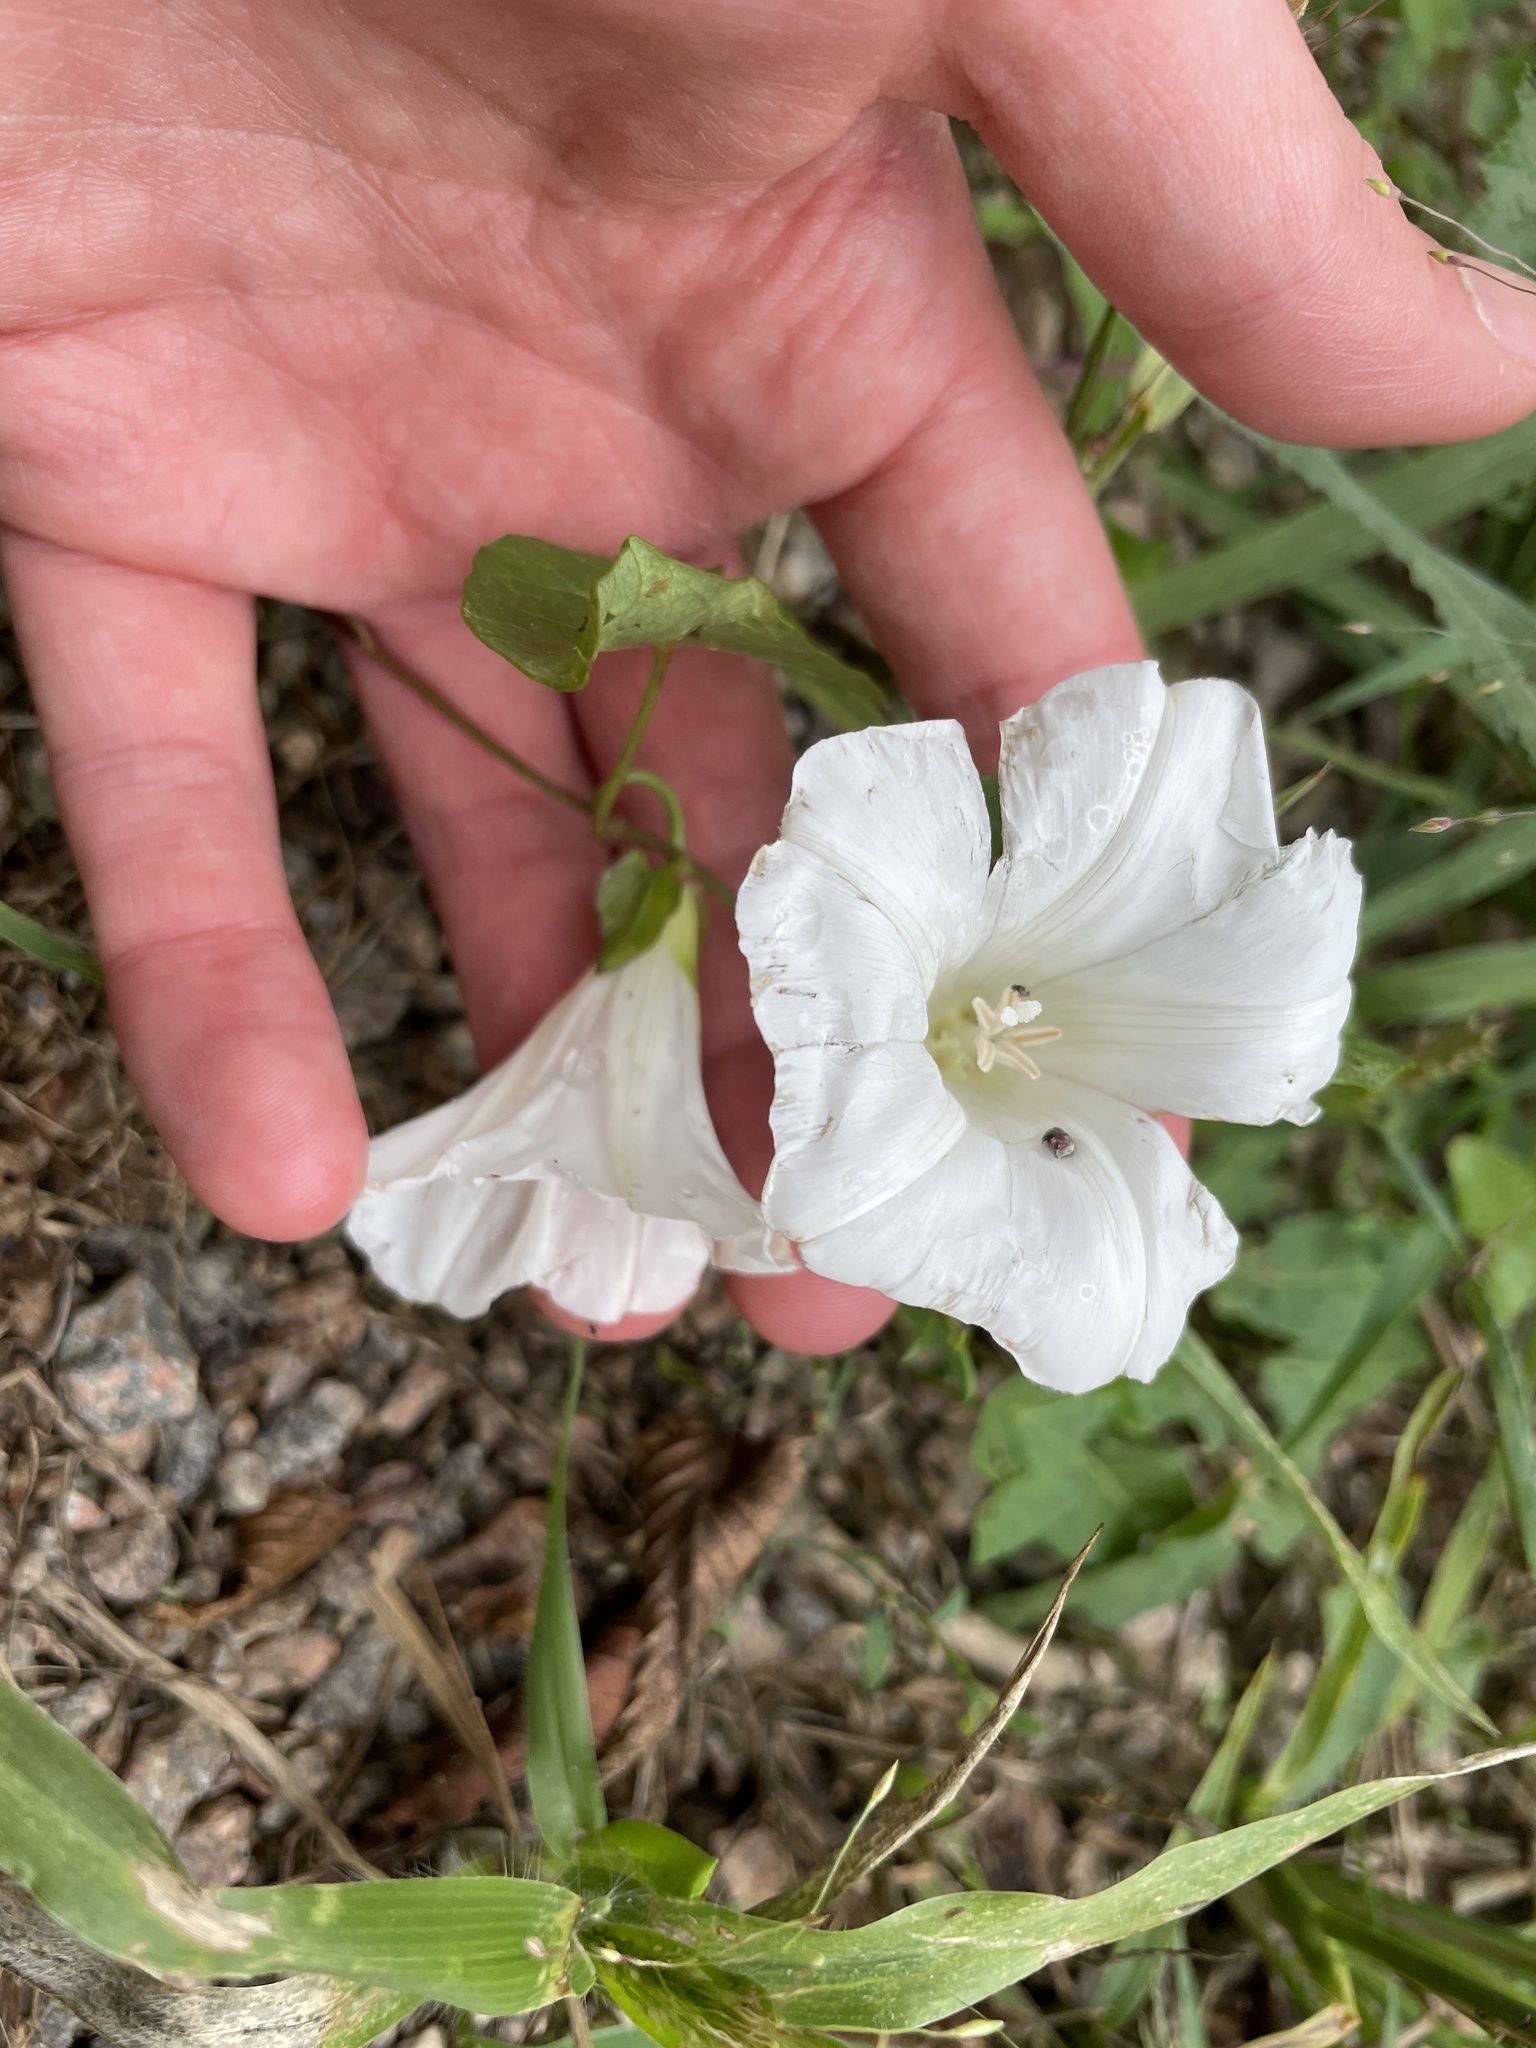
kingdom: Plantae
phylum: Tracheophyta
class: Magnoliopsida
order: Solanales
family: Convolvulaceae
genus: Calystegia
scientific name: Calystegia sepium
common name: Hedge bindweed
